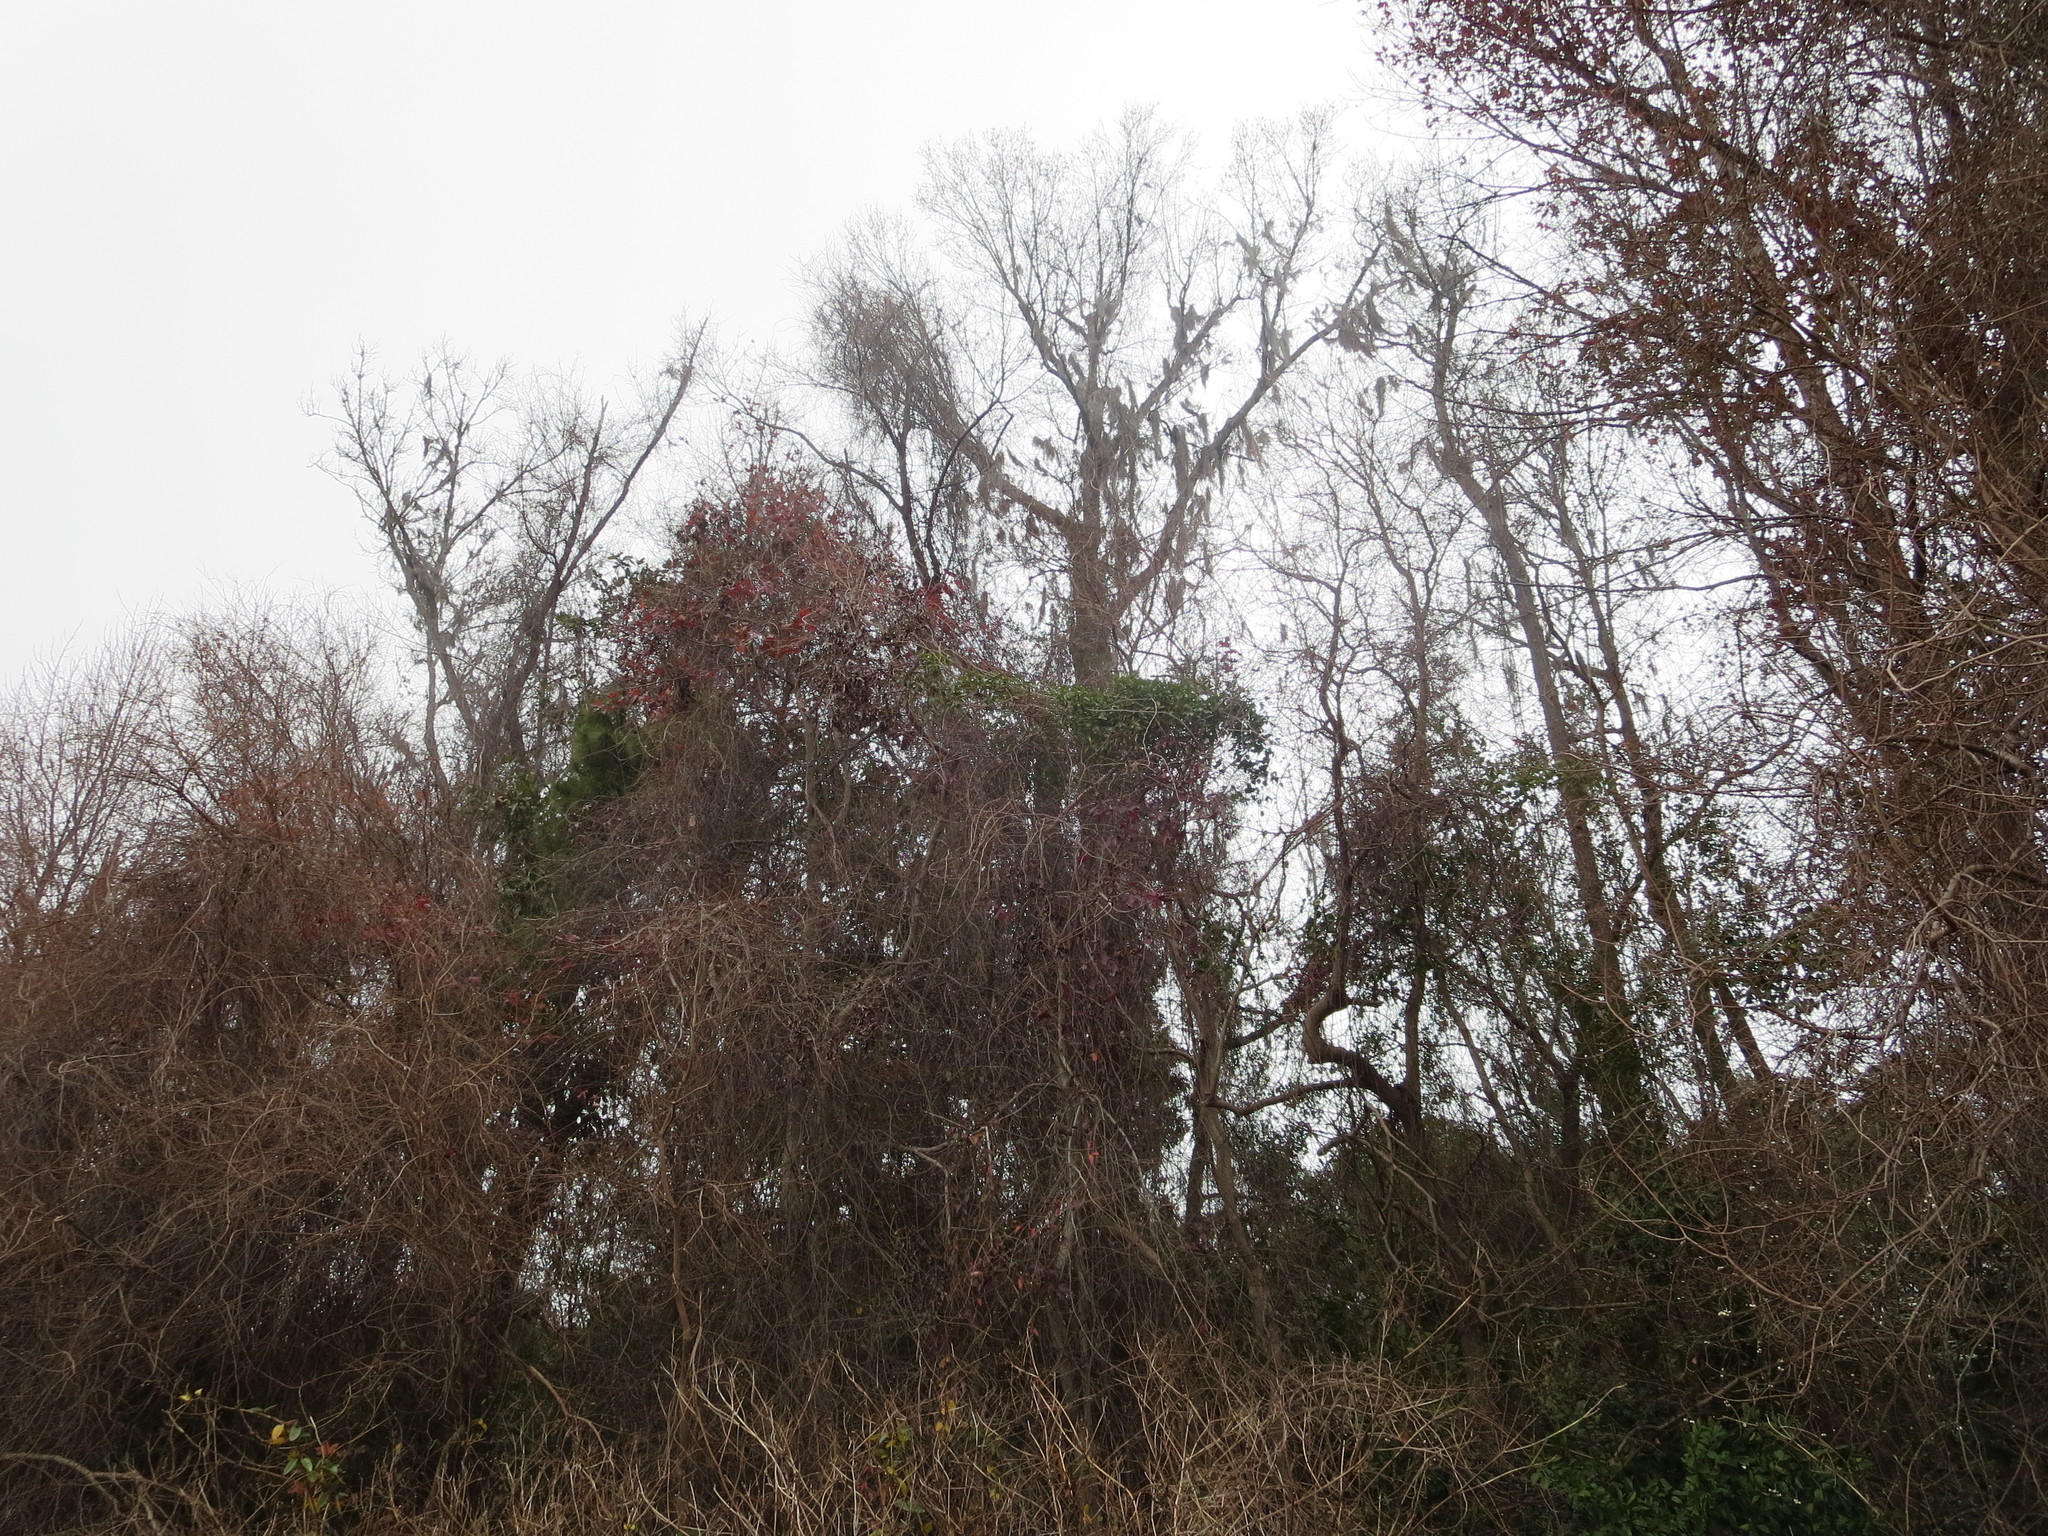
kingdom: Plantae
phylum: Tracheophyta
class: Liliopsida
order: Liliales
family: Smilacaceae
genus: Smilax
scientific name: Smilax maritima
